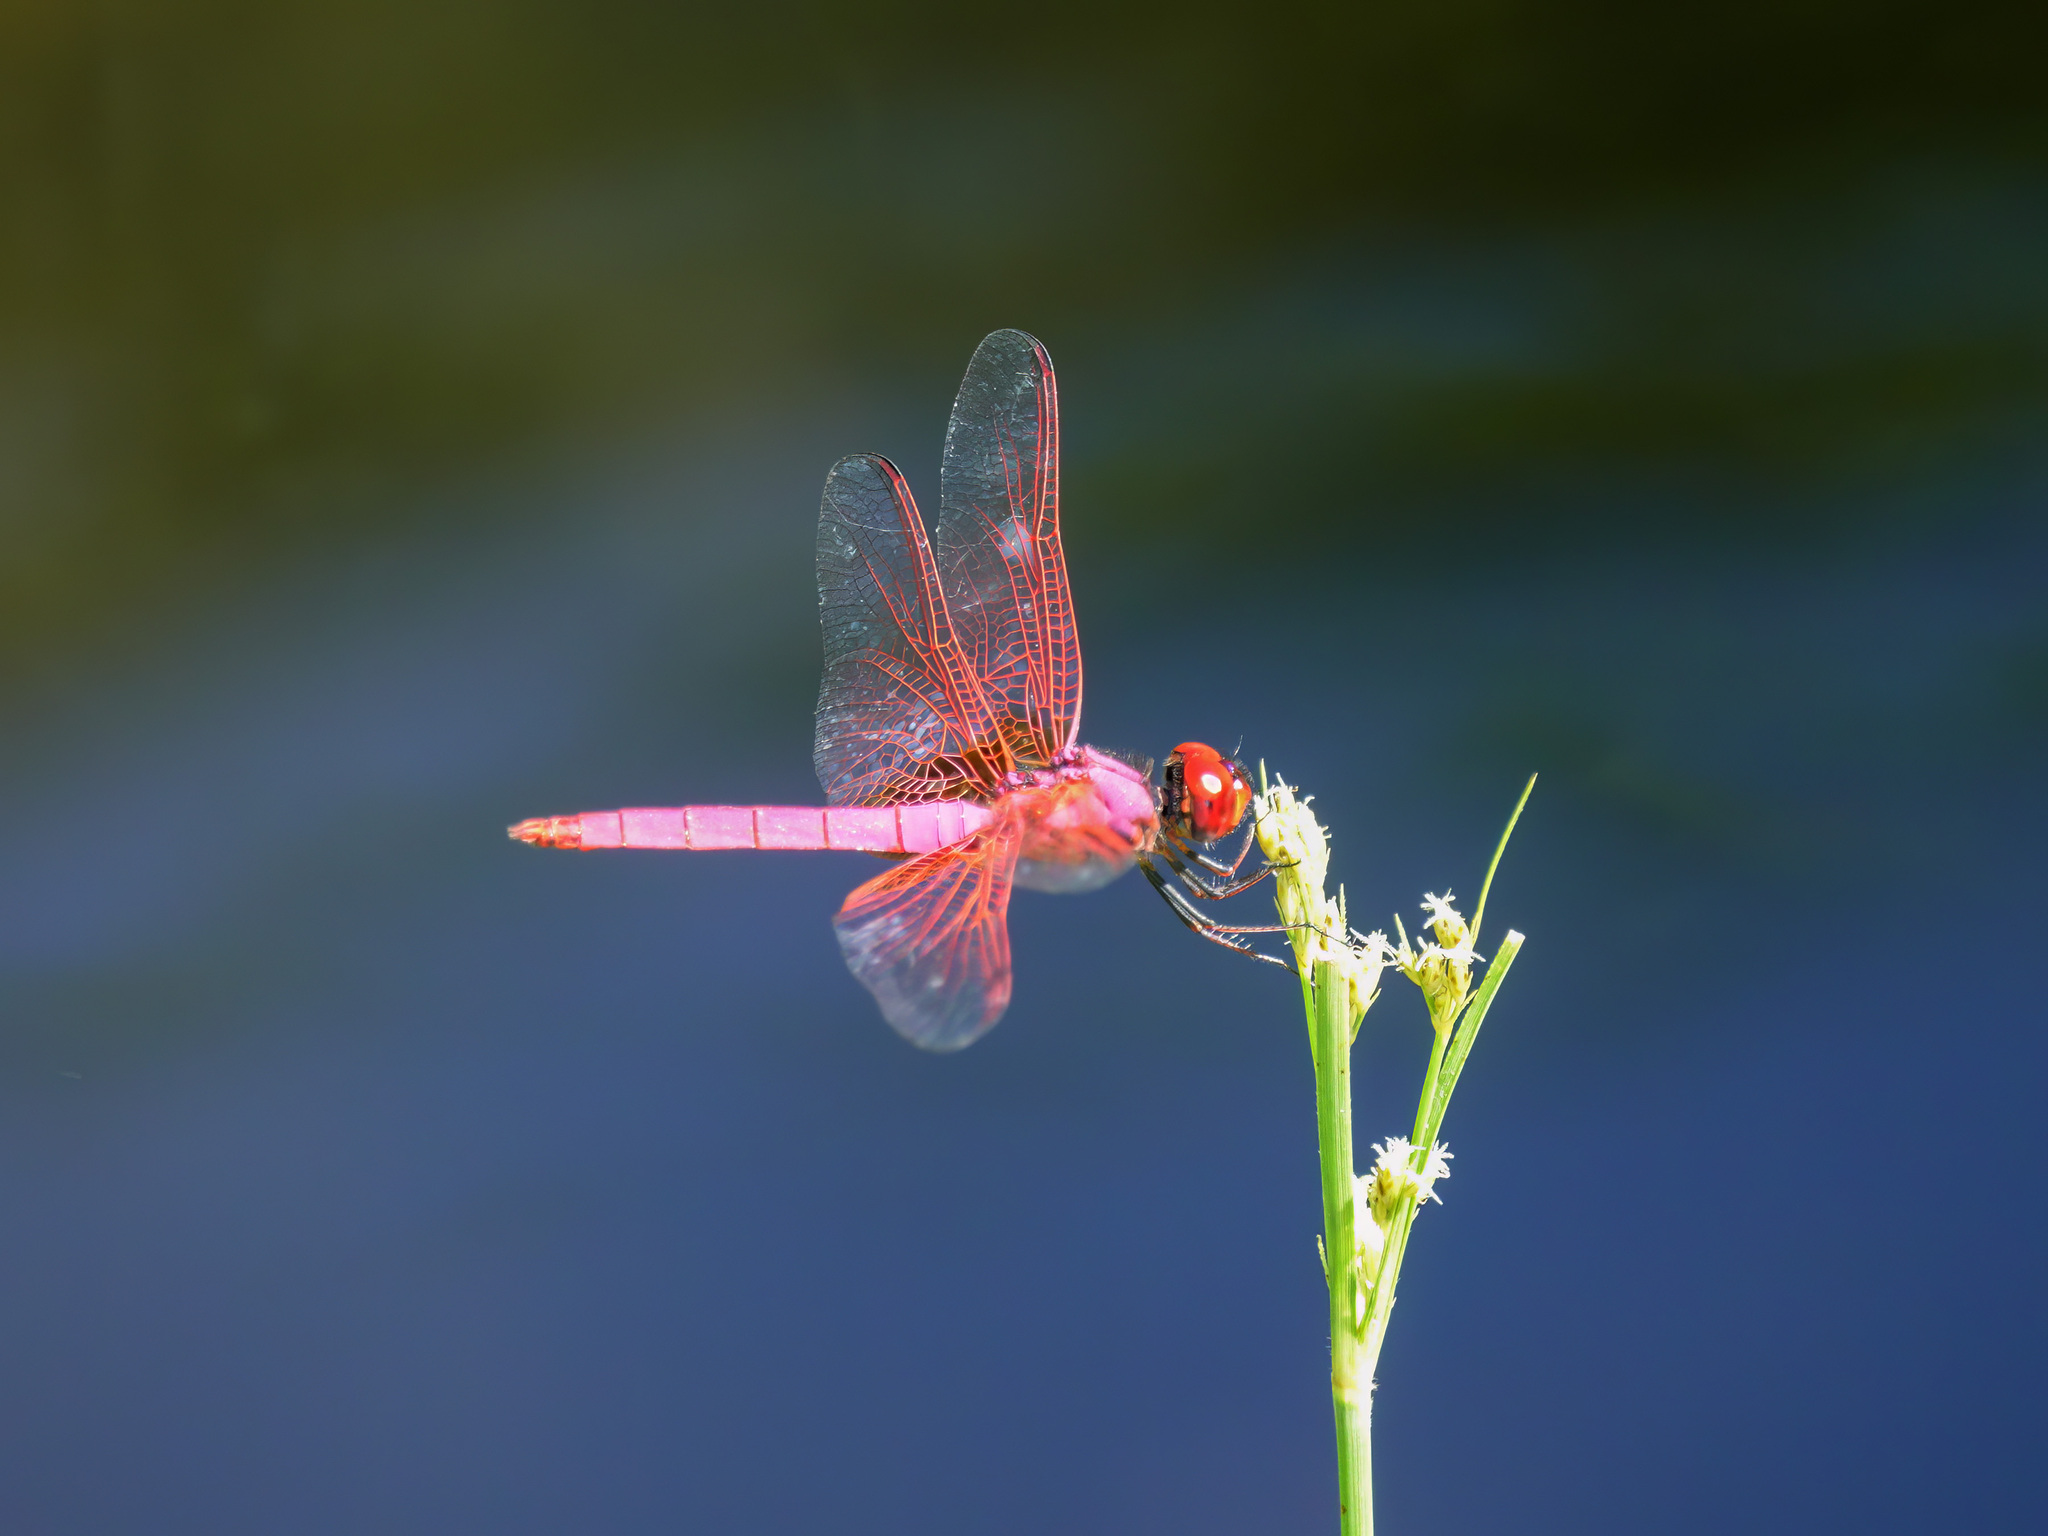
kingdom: Animalia
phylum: Arthropoda
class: Insecta
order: Odonata
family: Libellulidae
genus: Trithemis
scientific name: Trithemis aurora
